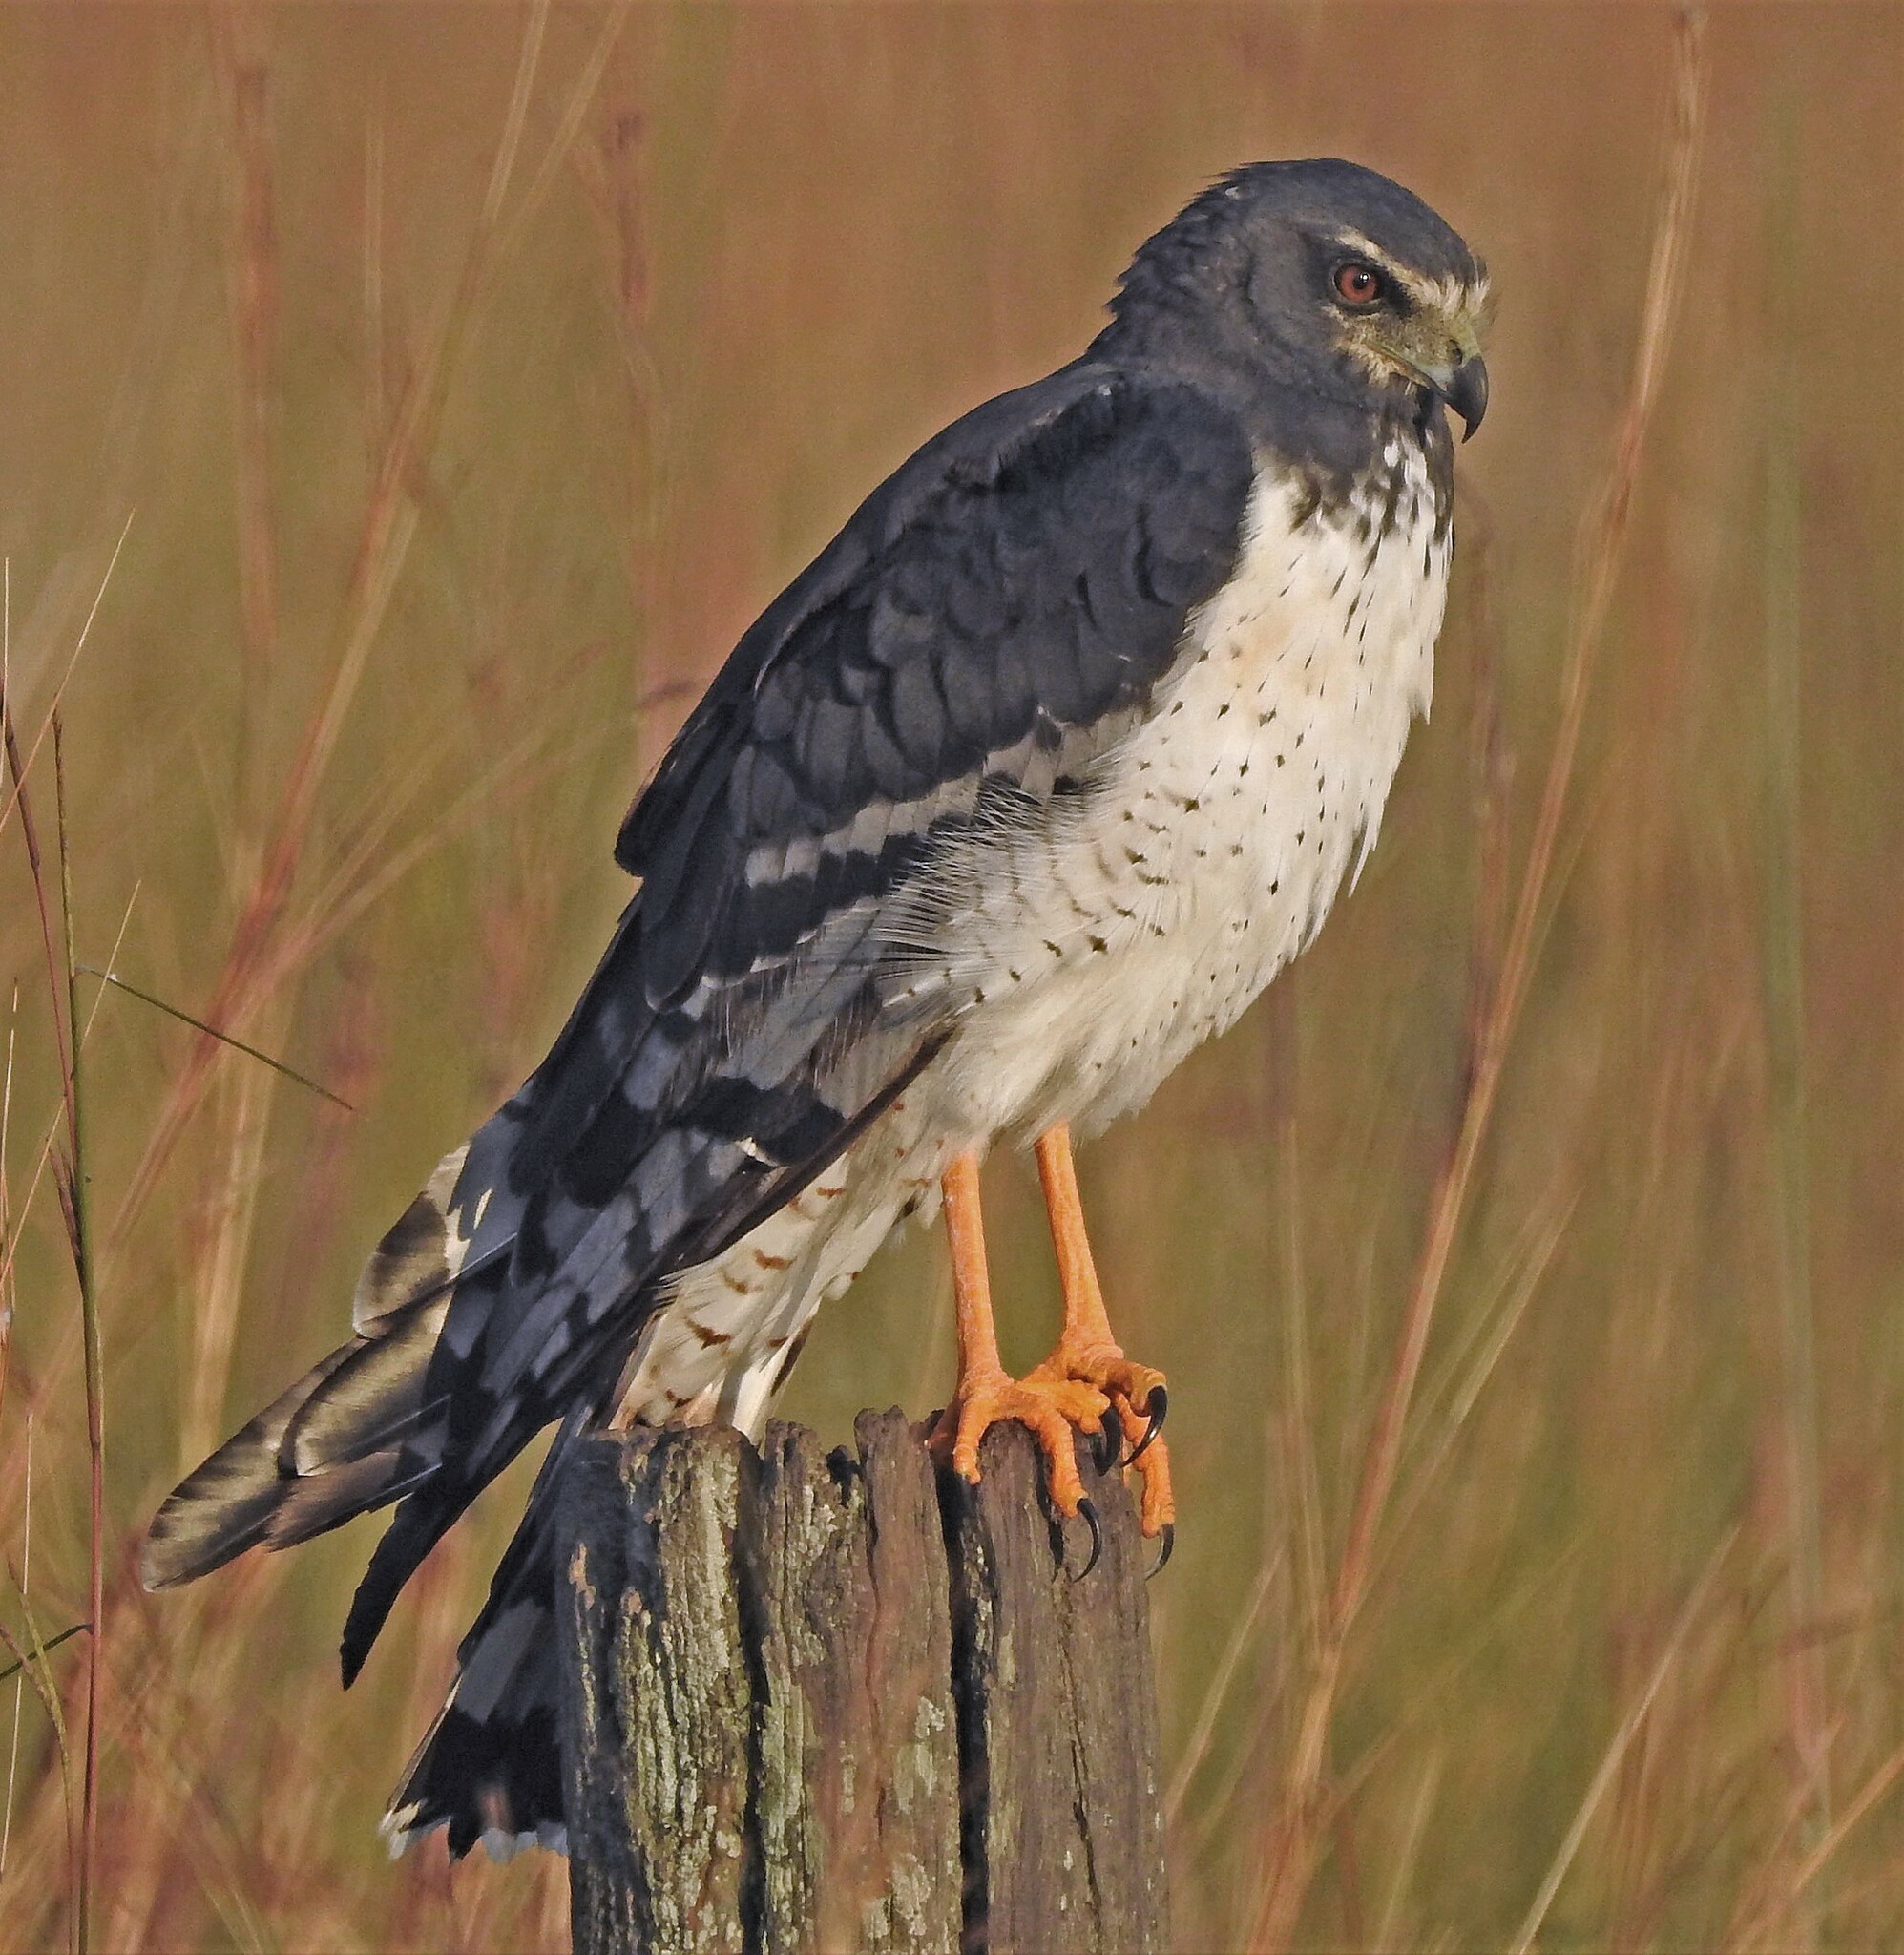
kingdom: Animalia
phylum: Chordata
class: Aves
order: Accipitriformes
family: Accipitridae
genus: Circus
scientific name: Circus buffoni
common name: Long-winged harrier
